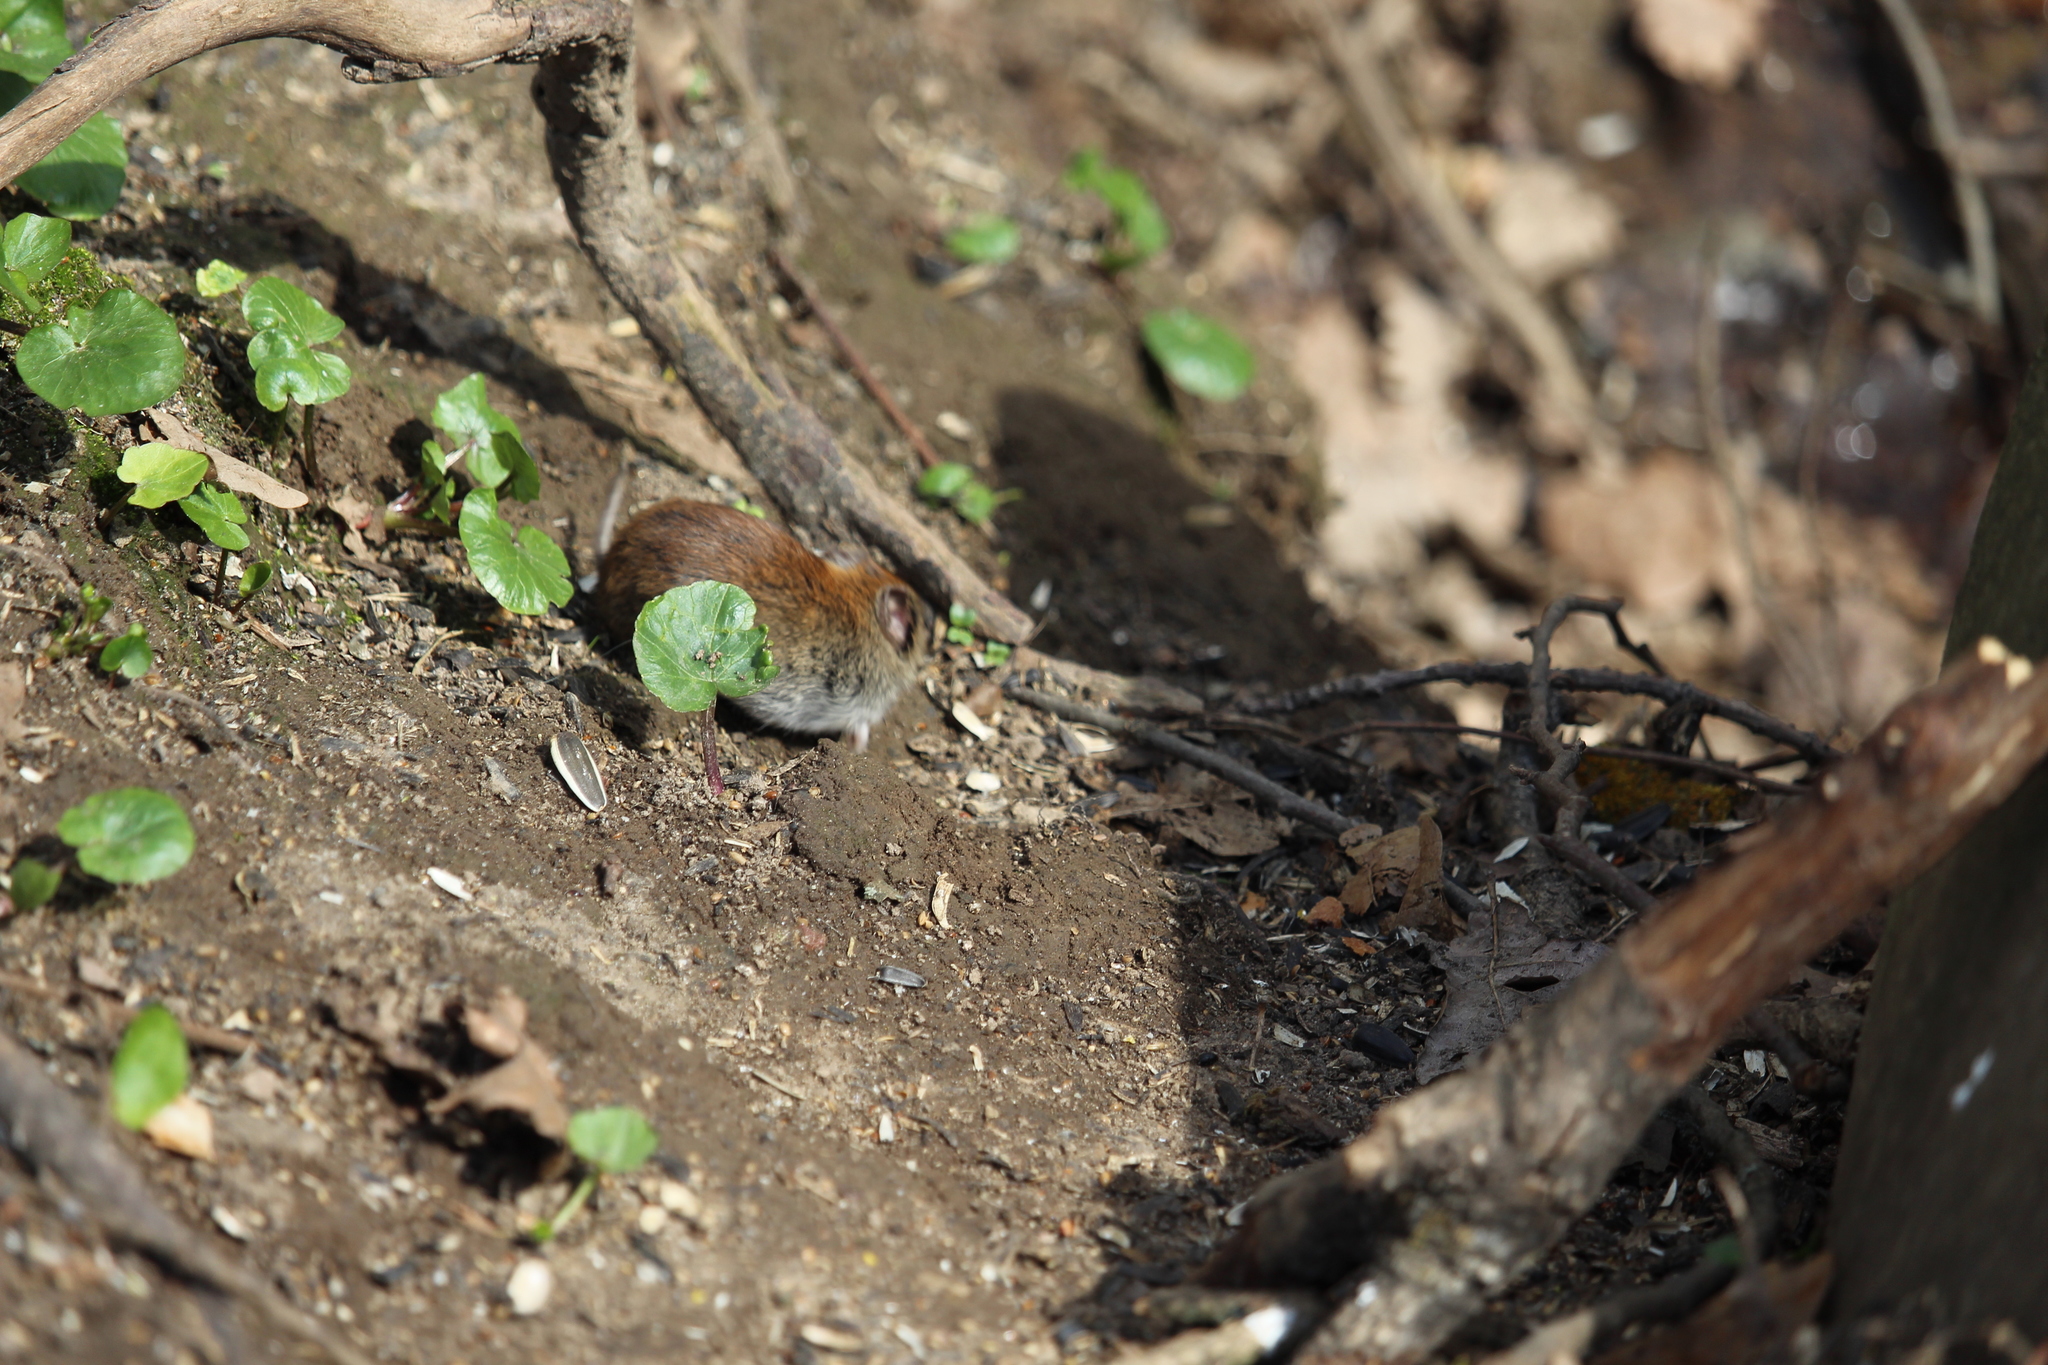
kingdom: Animalia
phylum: Chordata
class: Mammalia
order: Rodentia
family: Cricetidae
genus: Myodes
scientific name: Myodes glareolus
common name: Bank vole
